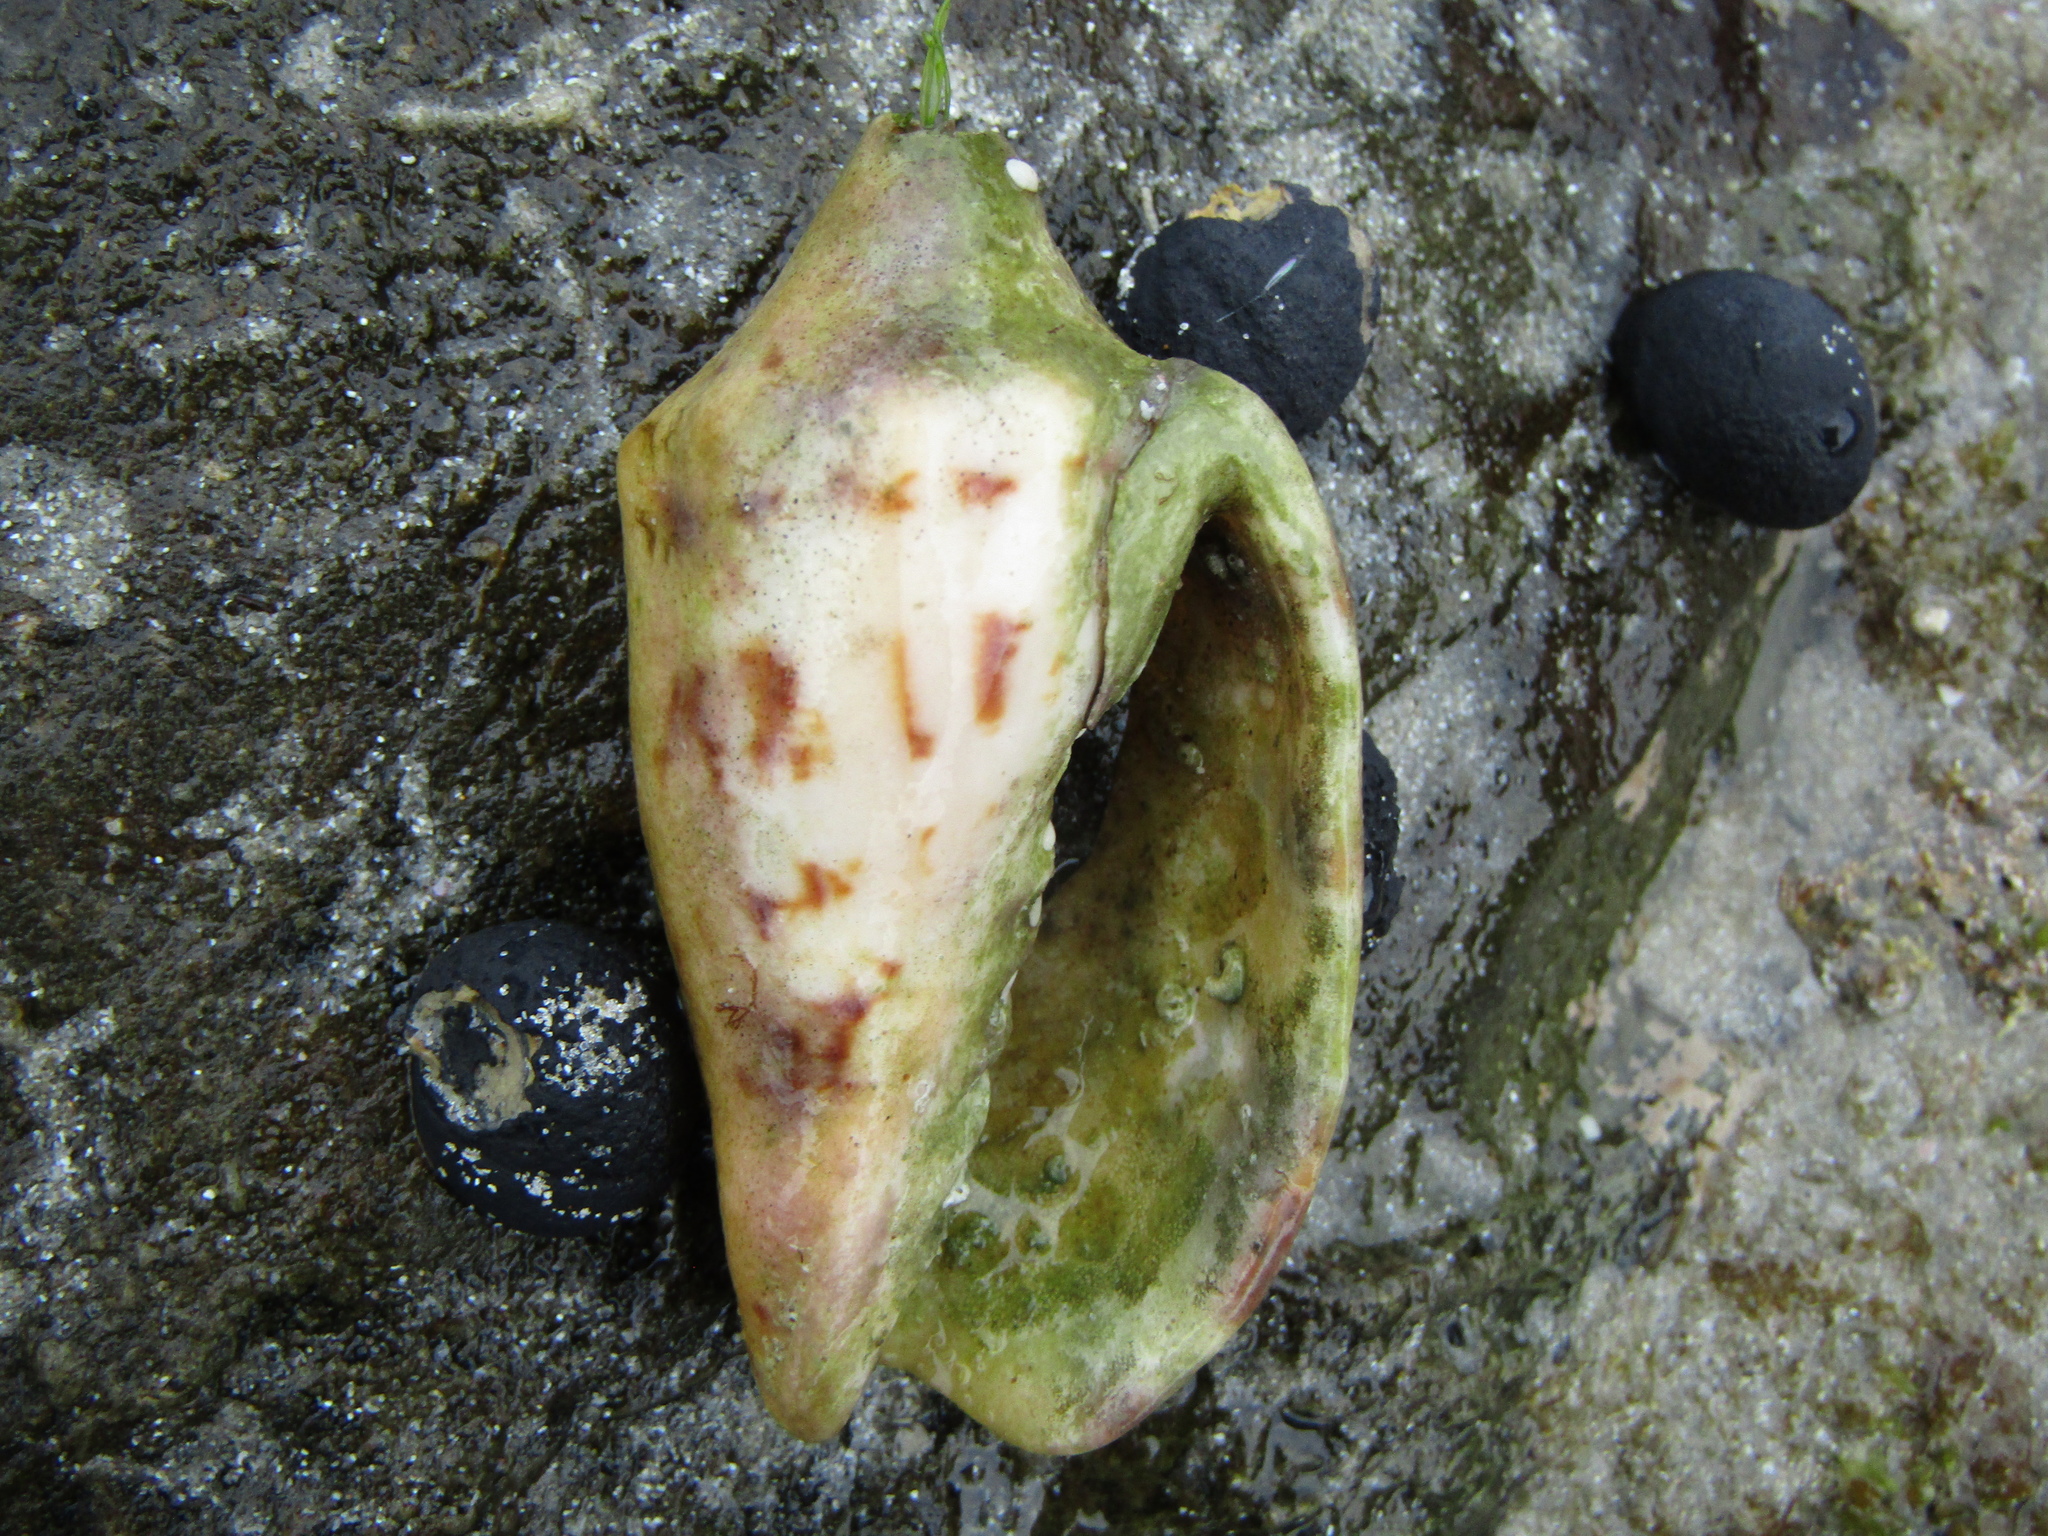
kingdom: Animalia
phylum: Mollusca
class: Gastropoda
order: Neogastropoda
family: Volutidae
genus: Alcithoe
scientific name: Alcithoe arabica
